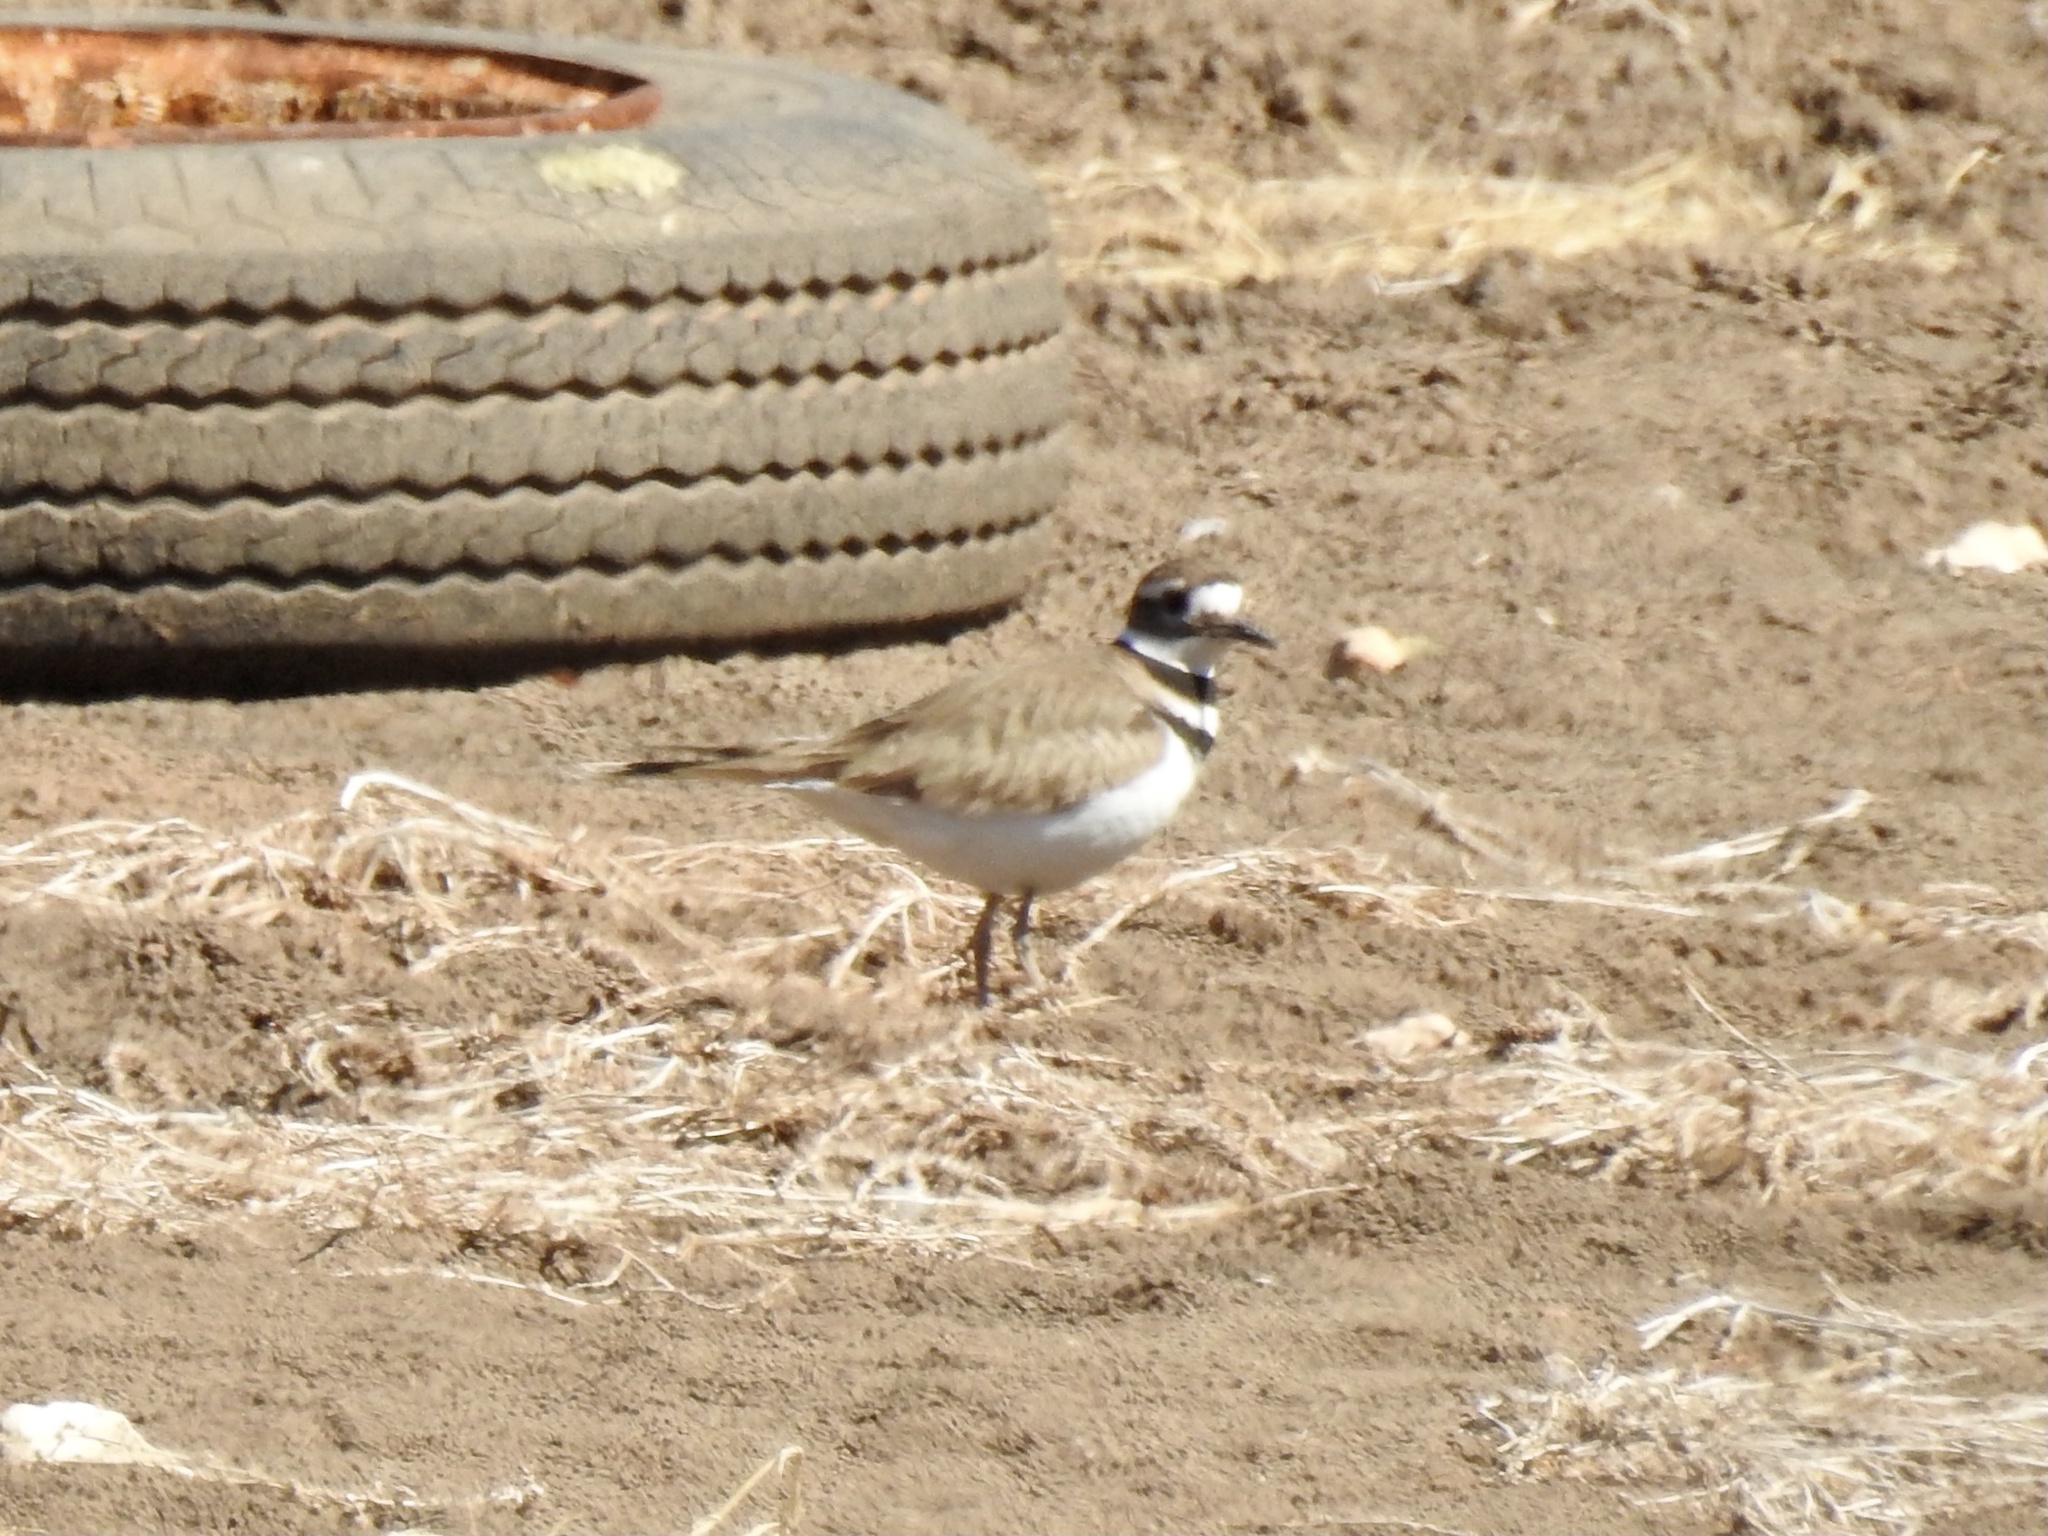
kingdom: Animalia
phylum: Chordata
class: Aves
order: Charadriiformes
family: Charadriidae
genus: Charadrius
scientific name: Charadrius vociferus
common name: Killdeer
